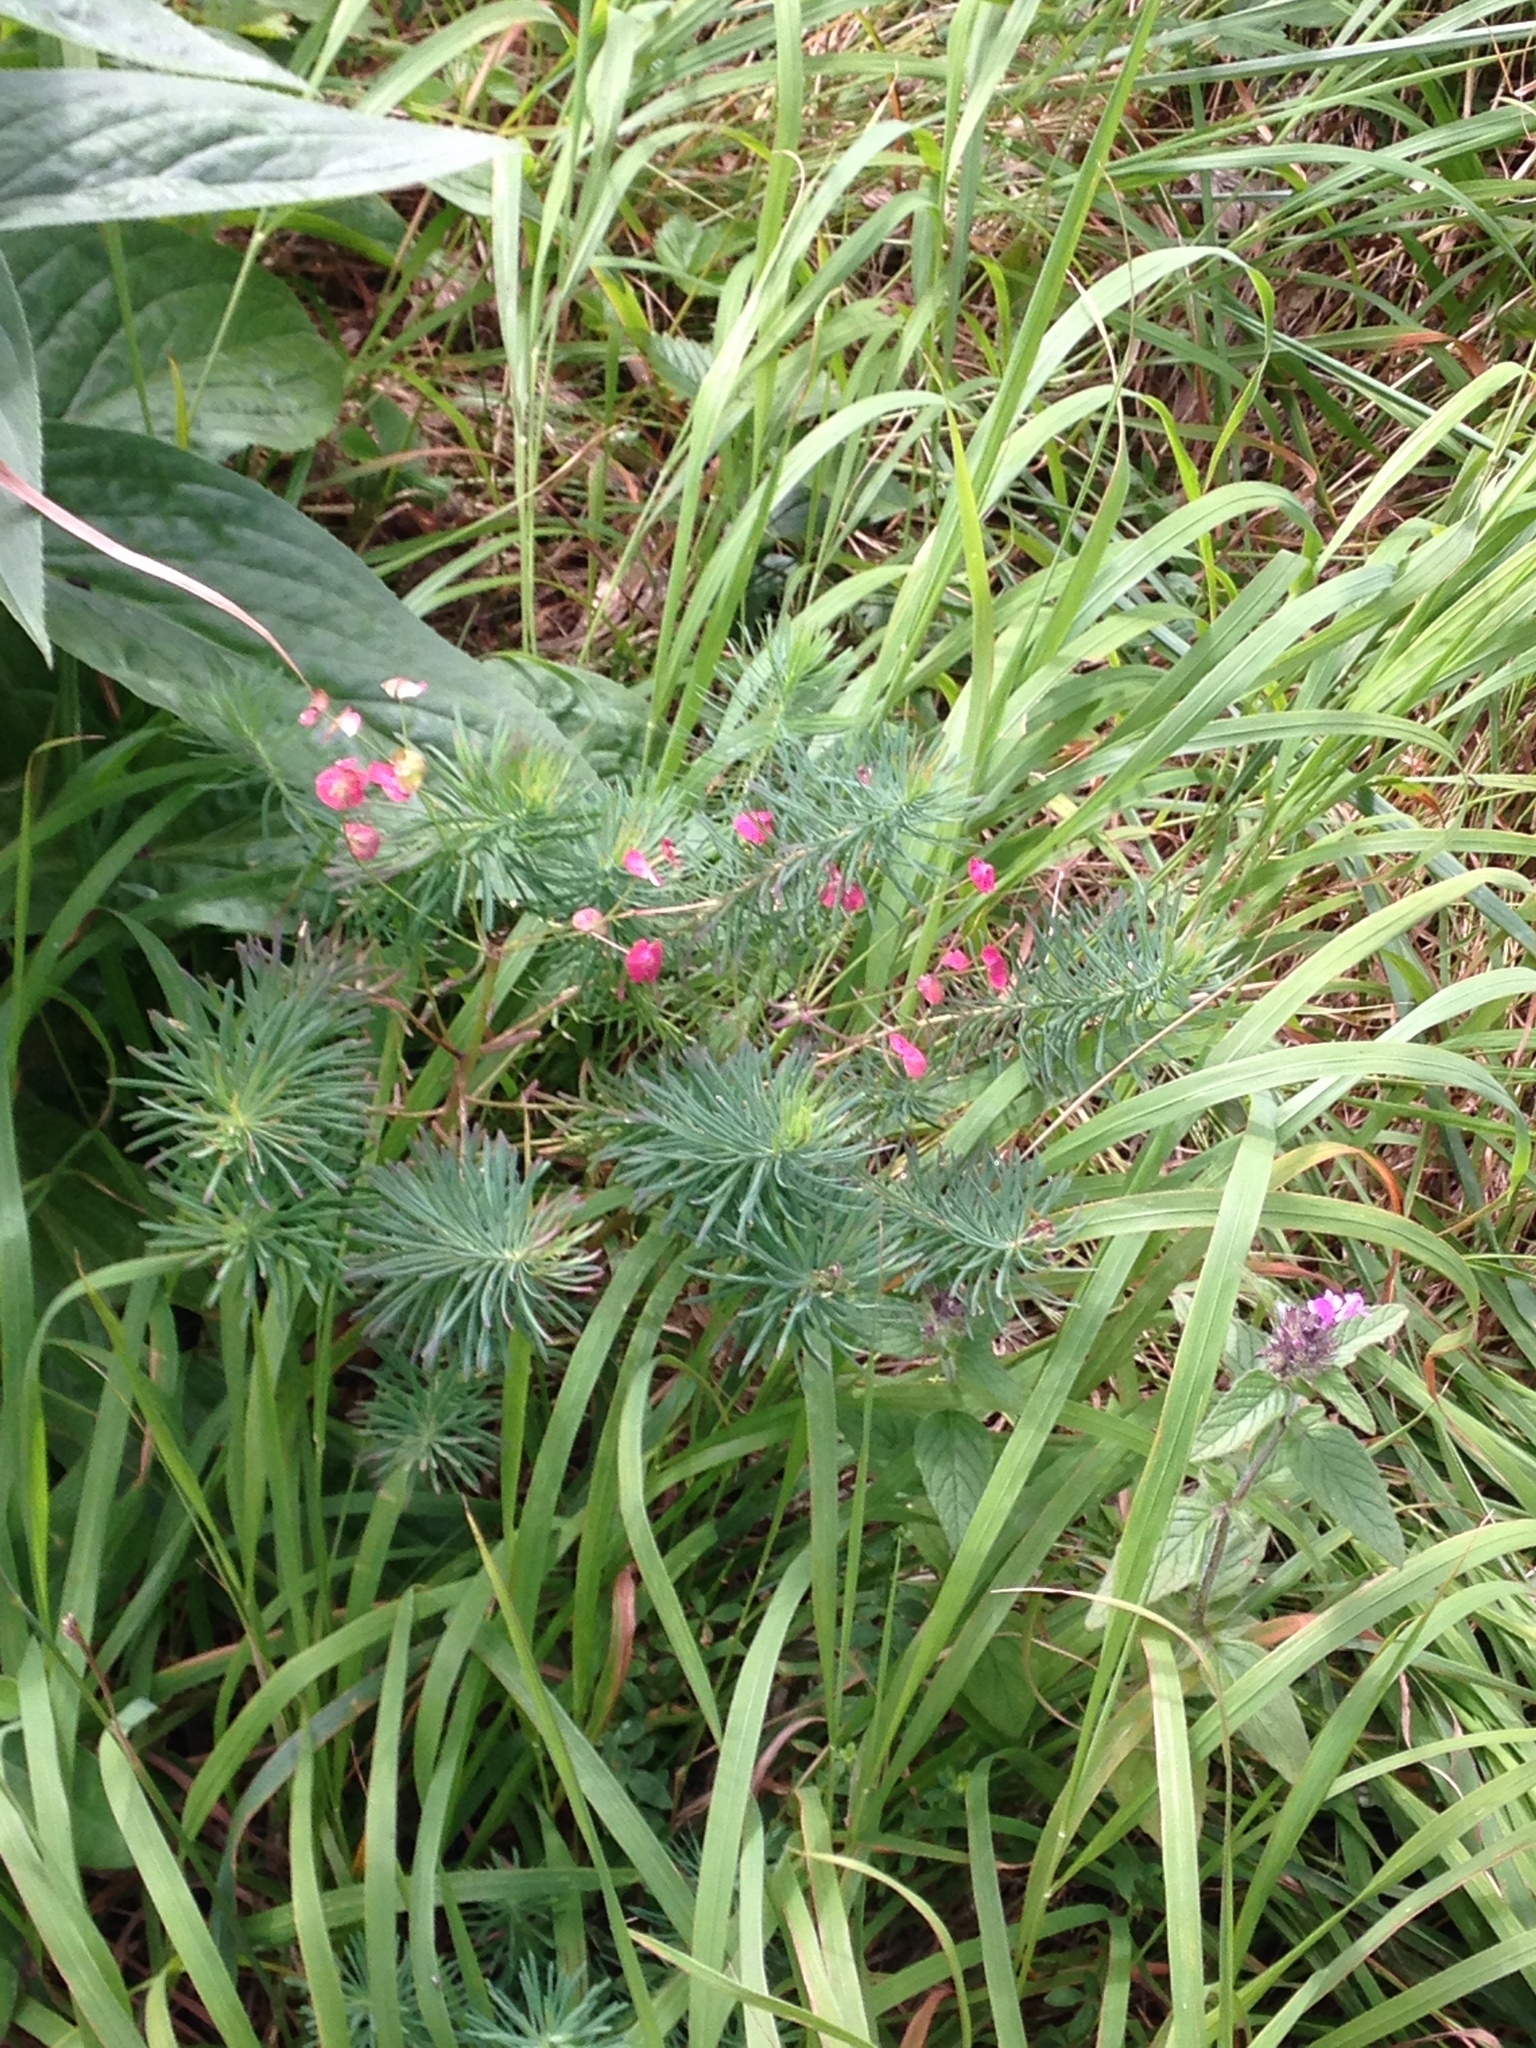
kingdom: Plantae
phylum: Tracheophyta
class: Magnoliopsida
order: Malpighiales
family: Euphorbiaceae
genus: Euphorbia
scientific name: Euphorbia cyparissias
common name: Cypress spurge
